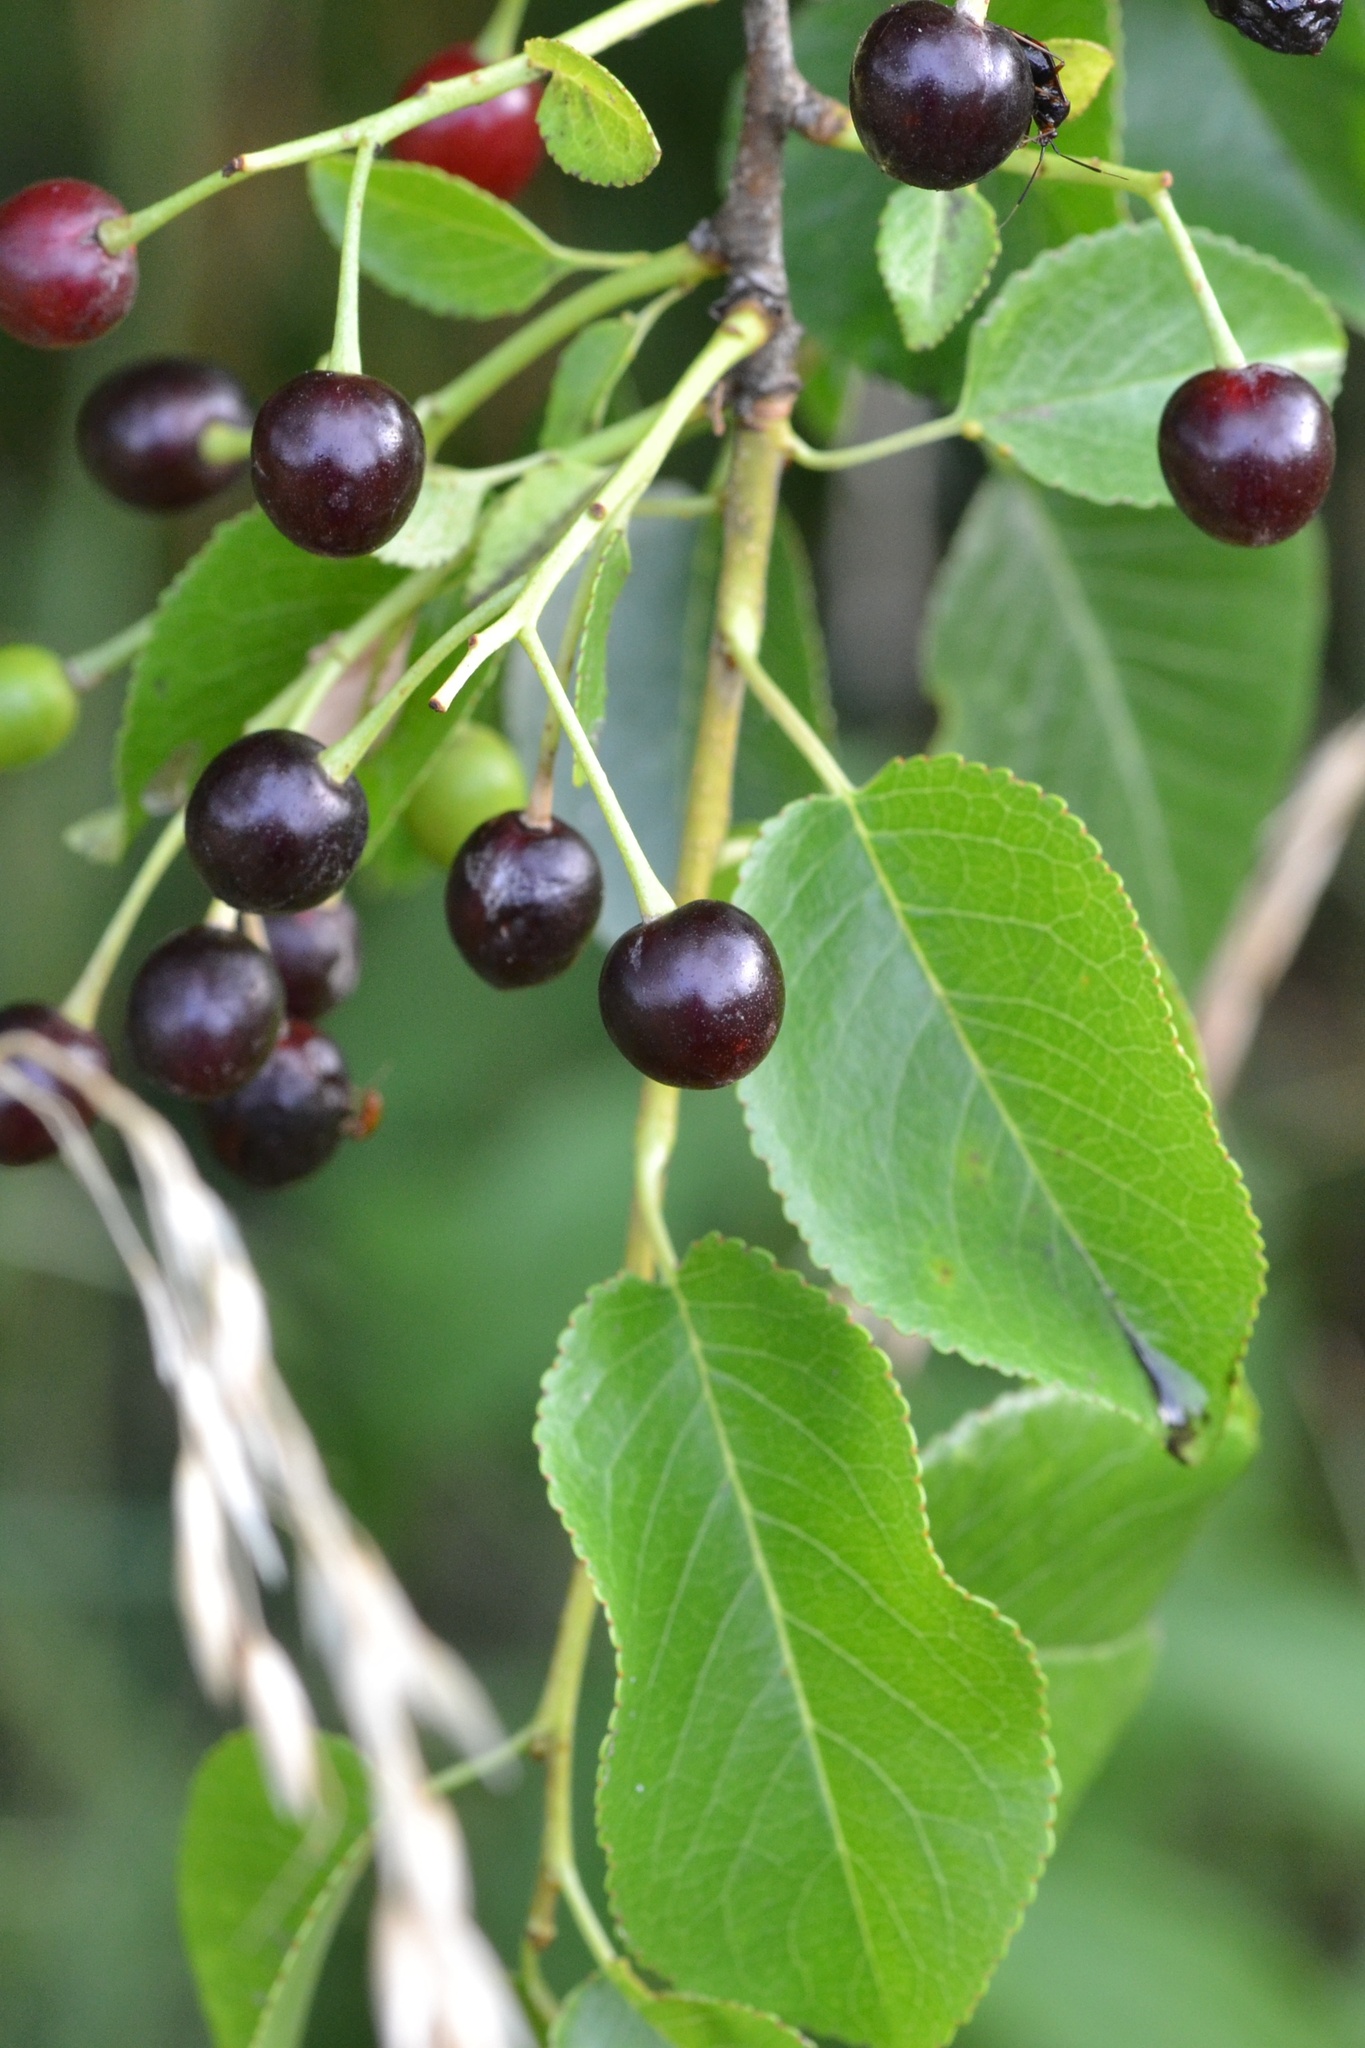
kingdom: Plantae
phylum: Tracheophyta
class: Magnoliopsida
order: Rosales
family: Rosaceae
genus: Prunus
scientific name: Prunus mahaleb
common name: Mahaleb cherry
